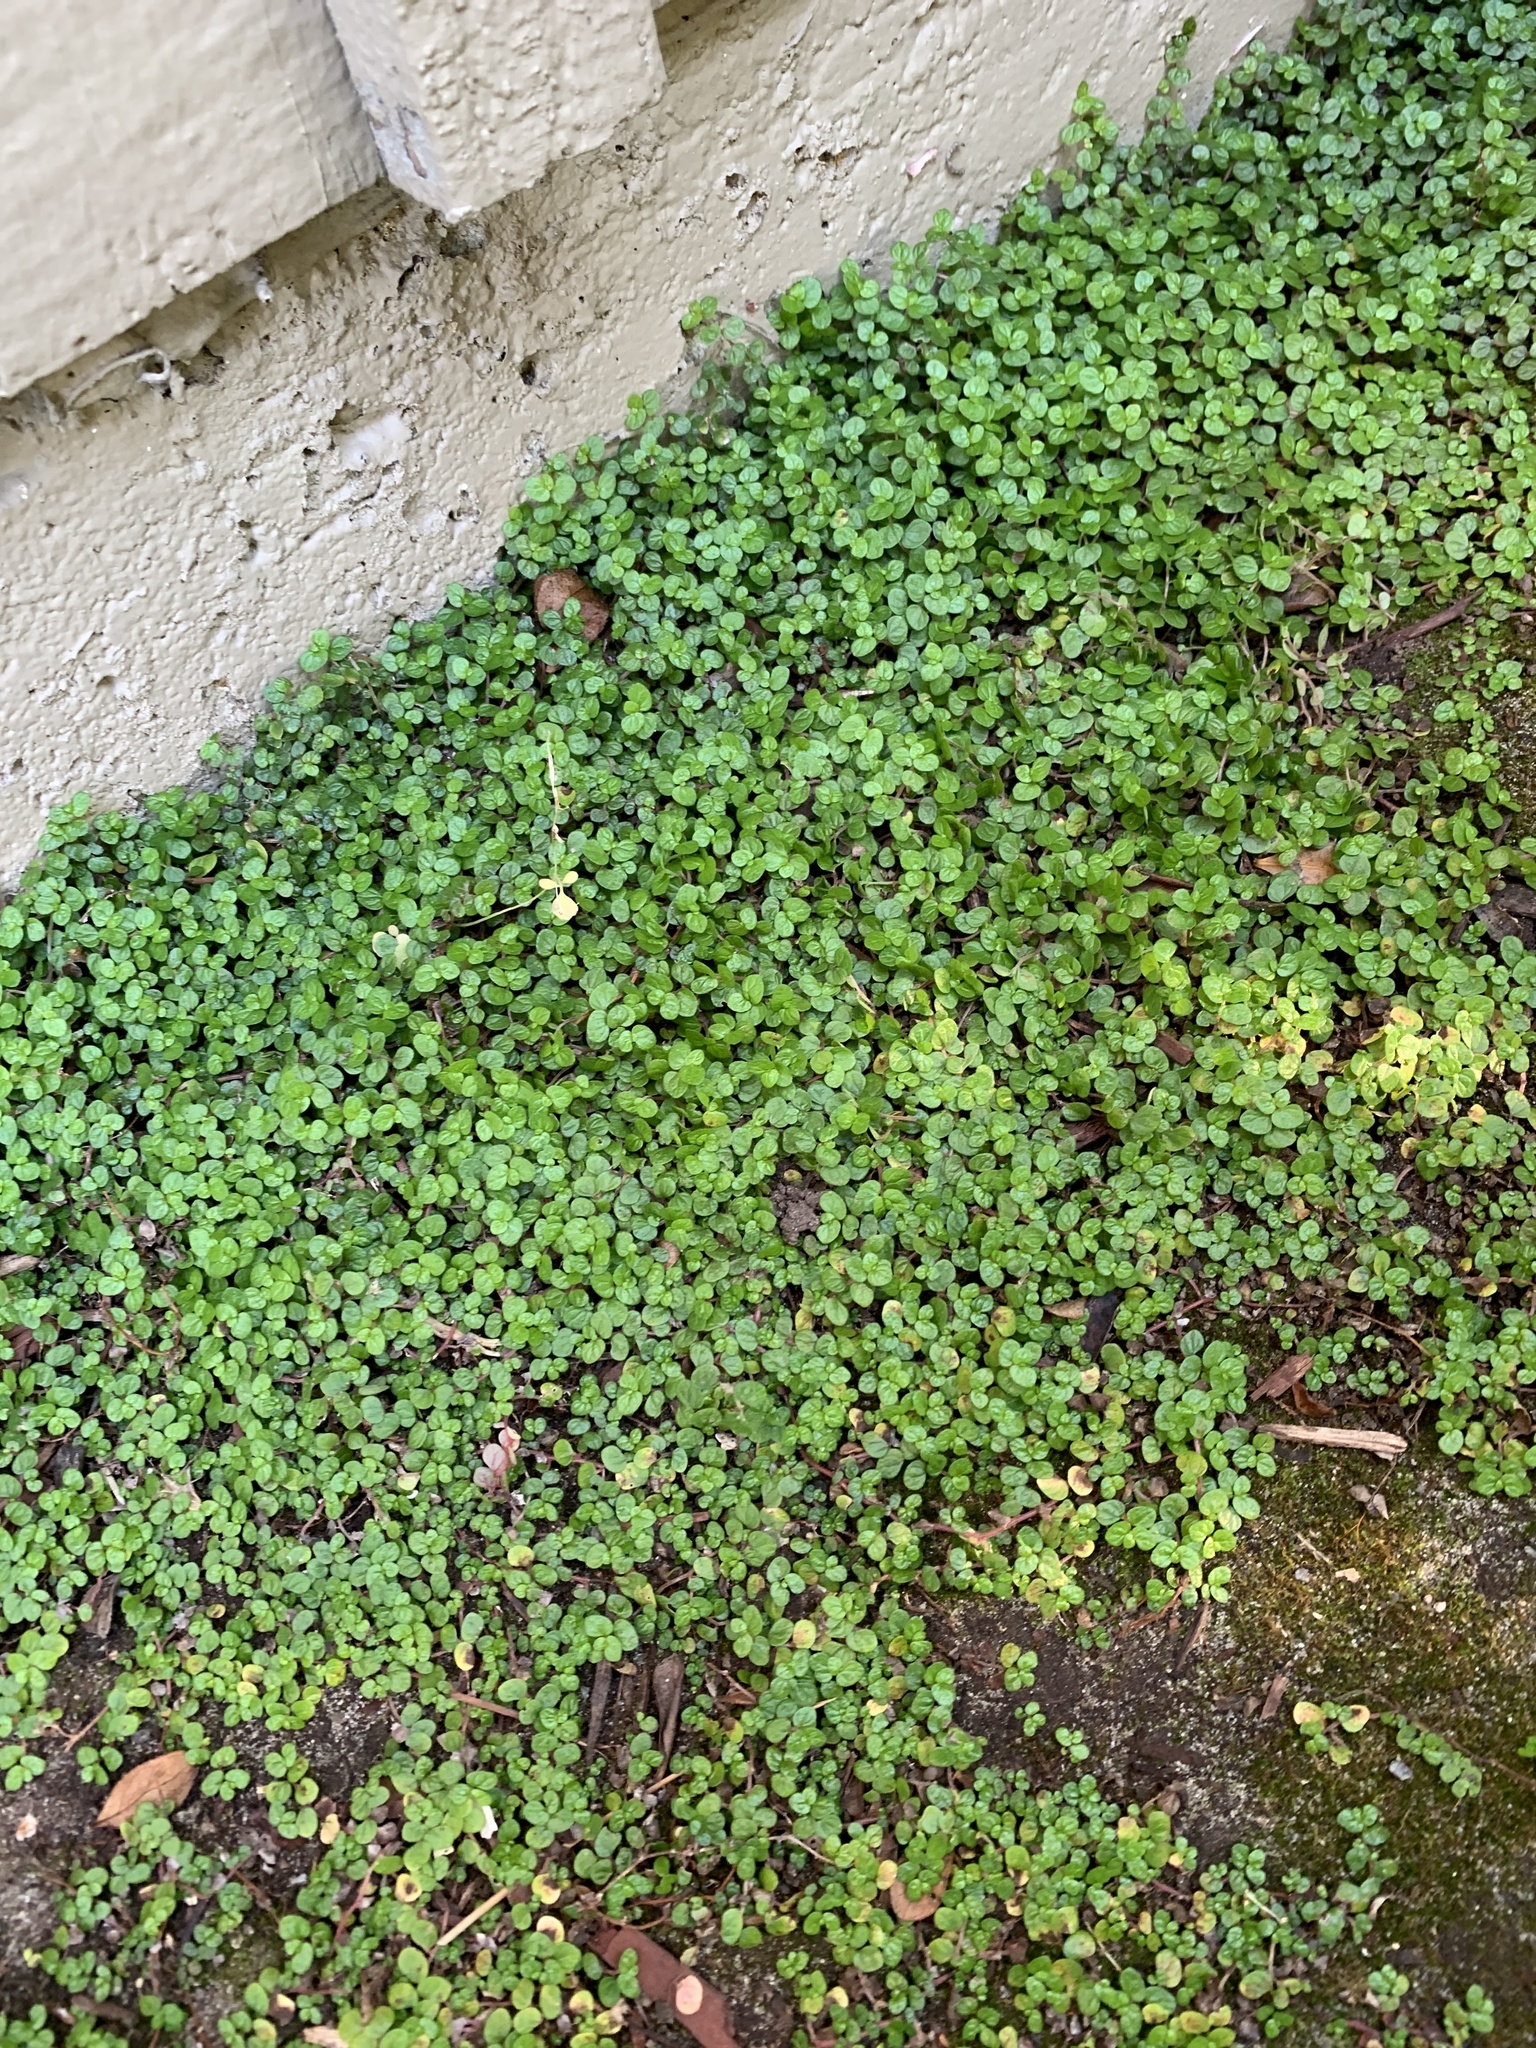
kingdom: Plantae
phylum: Tracheophyta
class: Magnoliopsida
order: Rosales
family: Urticaceae
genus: Soleirolia
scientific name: Soleirolia soleirolii
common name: Mind-your-own-business
